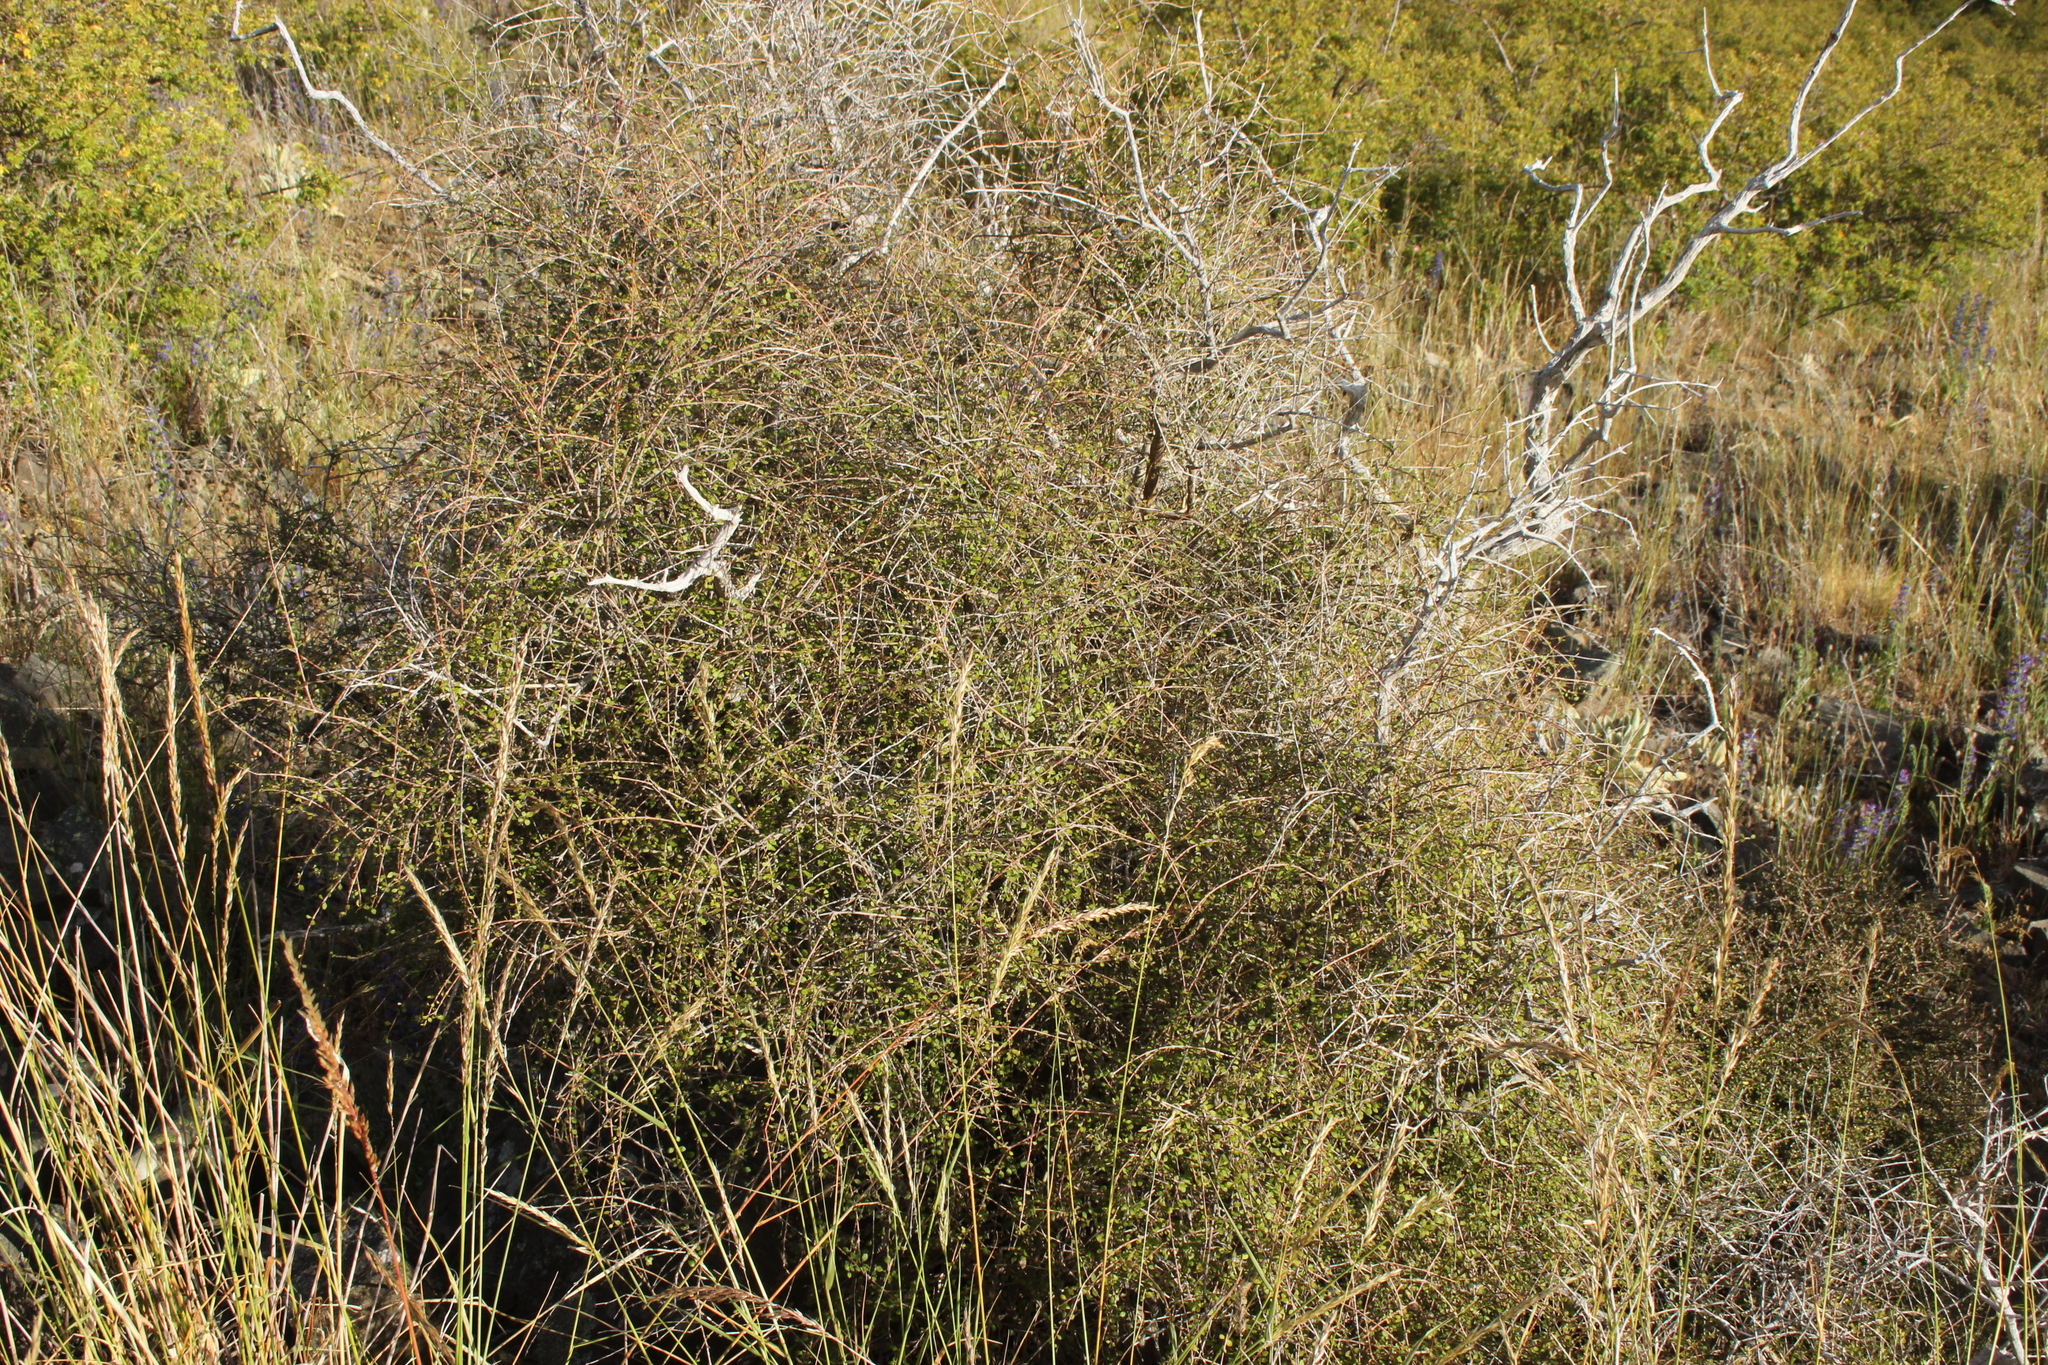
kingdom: Plantae
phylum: Tracheophyta
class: Magnoliopsida
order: Gentianales
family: Rubiaceae
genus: Coprosma
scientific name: Coprosma virescens
